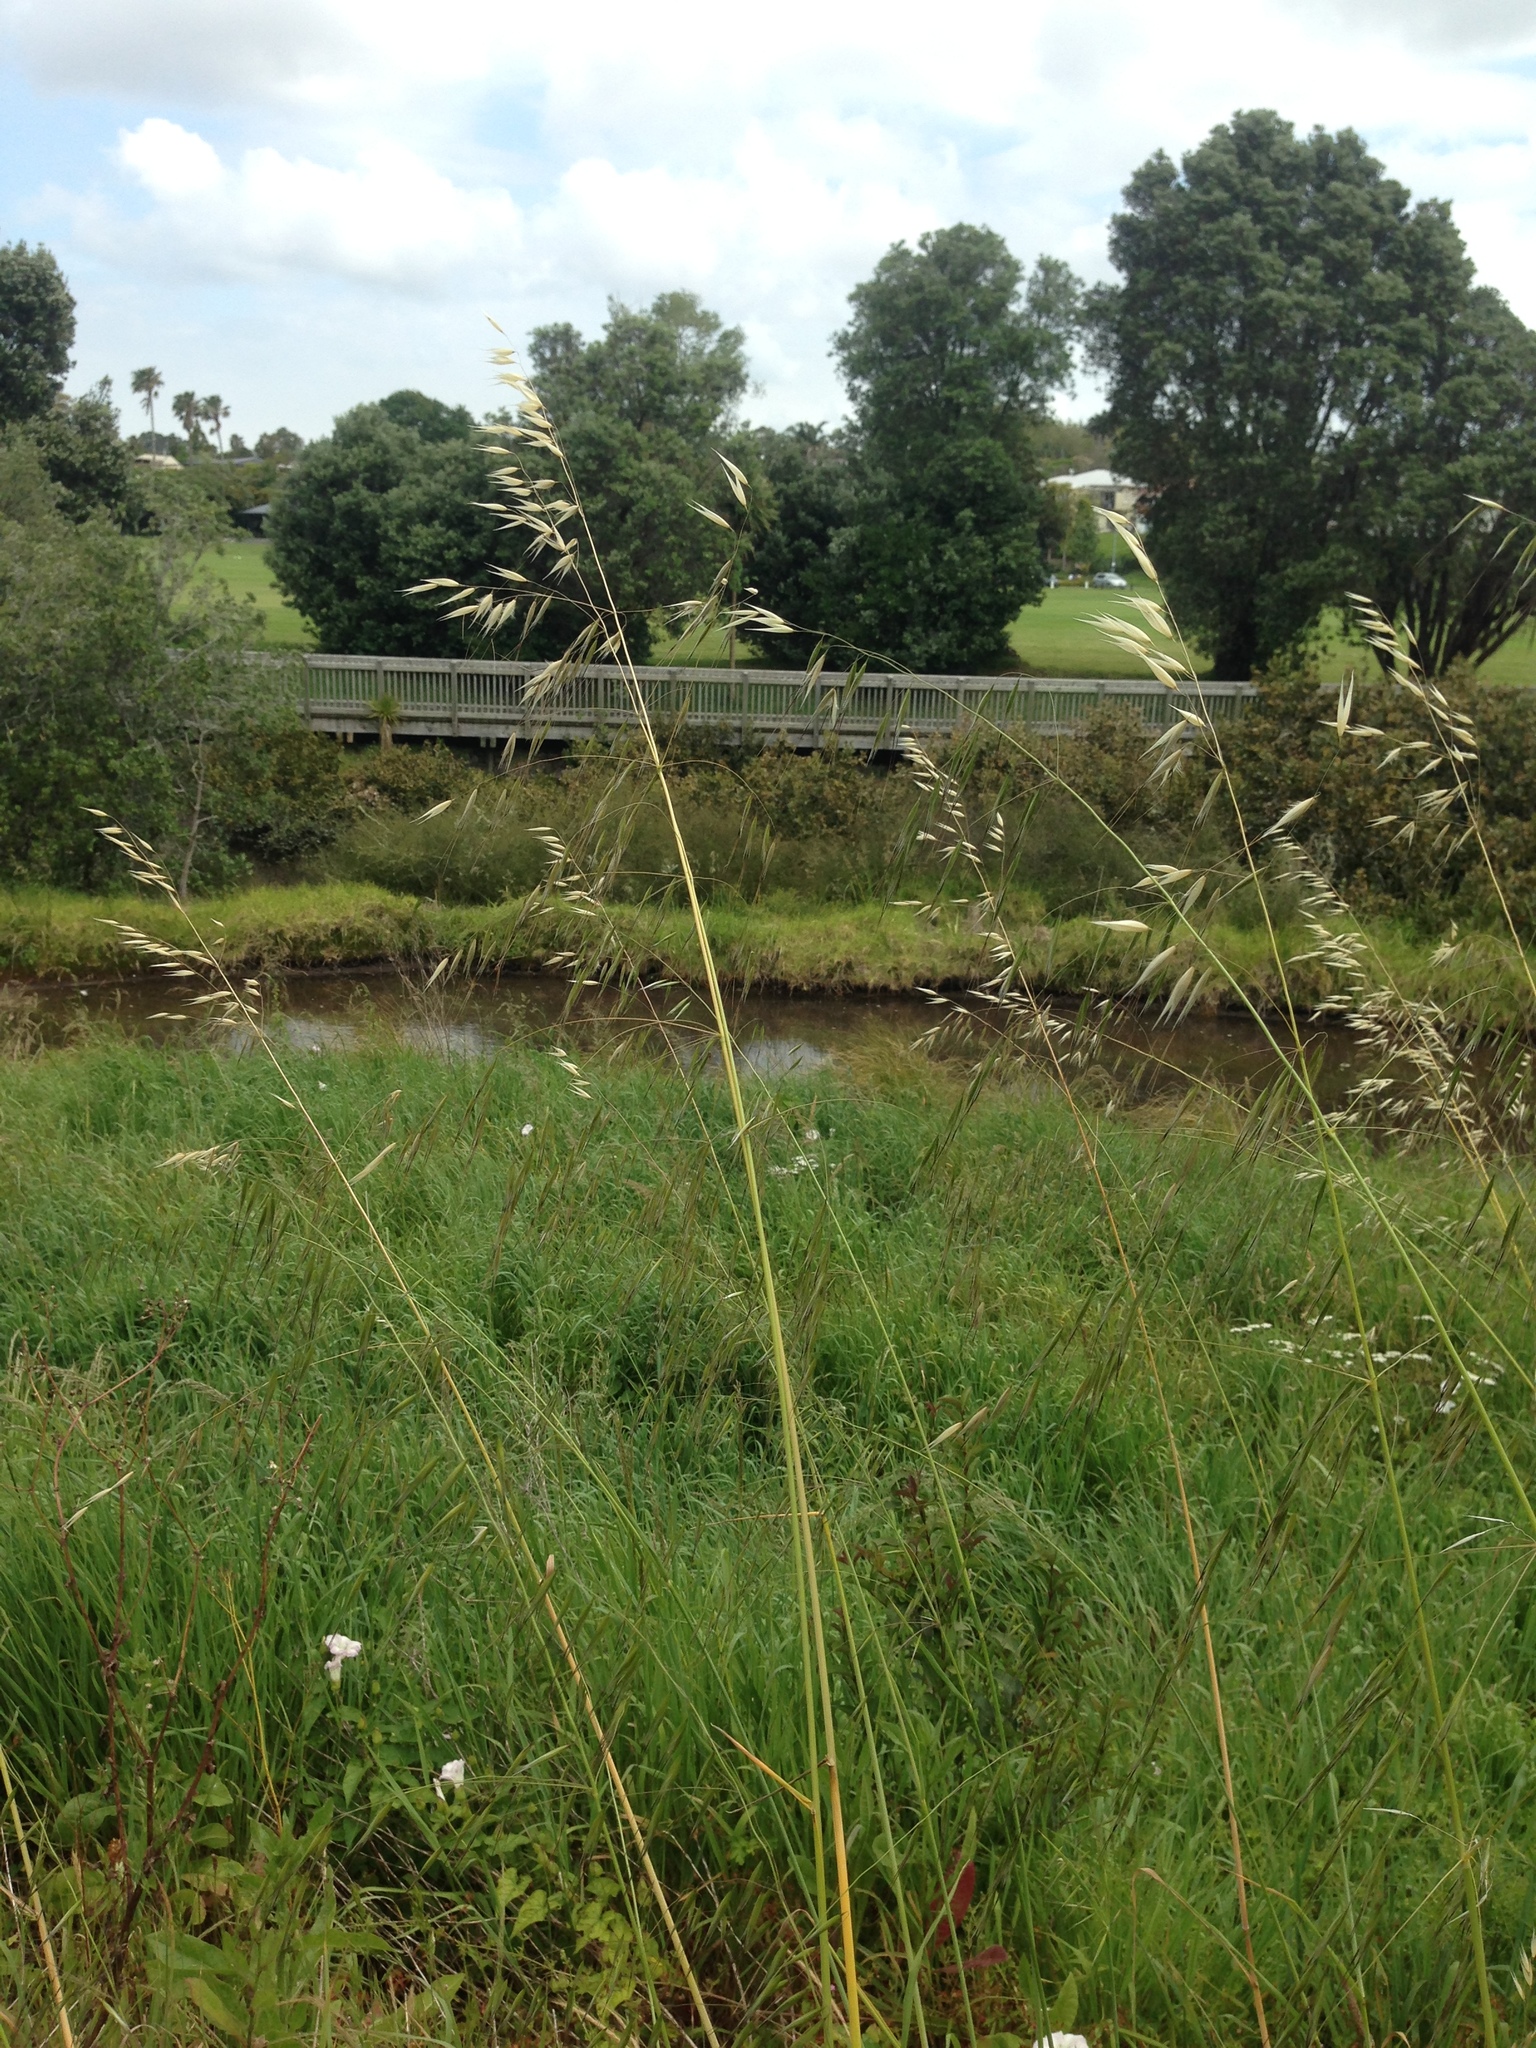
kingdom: Plantae
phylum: Tracheophyta
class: Liliopsida
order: Poales
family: Poaceae
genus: Avena
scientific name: Avena barbata
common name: Slender oat
